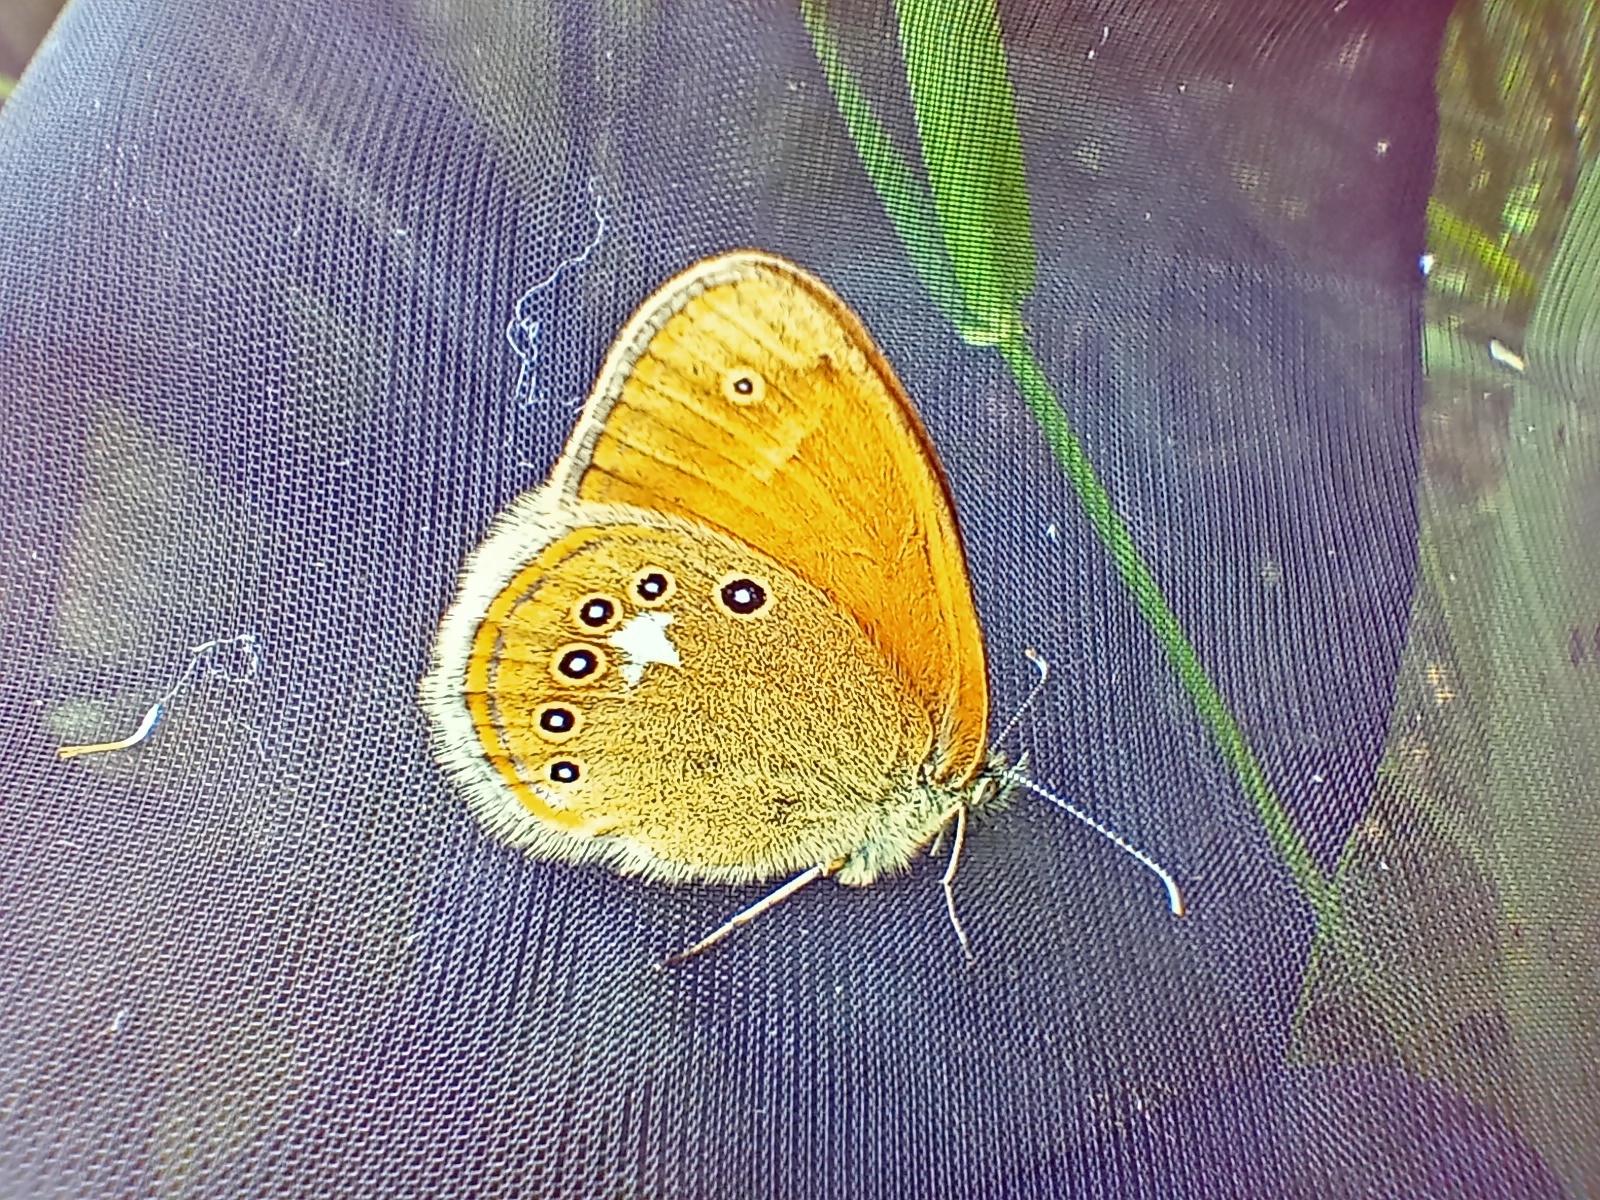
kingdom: Animalia
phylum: Arthropoda
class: Insecta
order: Lepidoptera
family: Nymphalidae
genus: Coenonympha
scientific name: Coenonympha iphis
